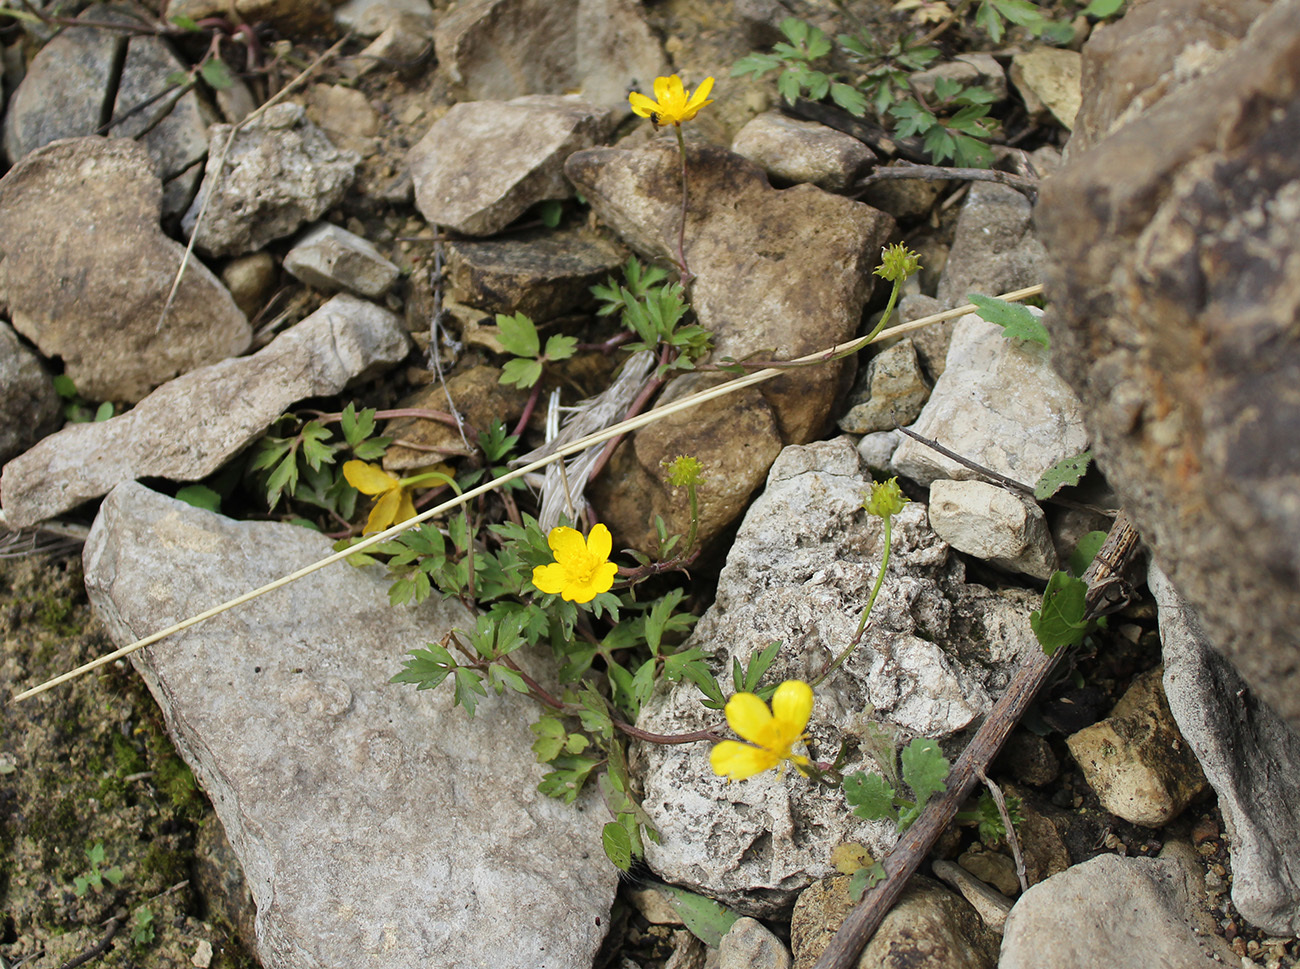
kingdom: Plantae
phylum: Tracheophyta
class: Magnoliopsida
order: Ranunculales
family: Ranunculaceae
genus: Ranunculus
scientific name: Ranunculus repens
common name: Creeping buttercup
